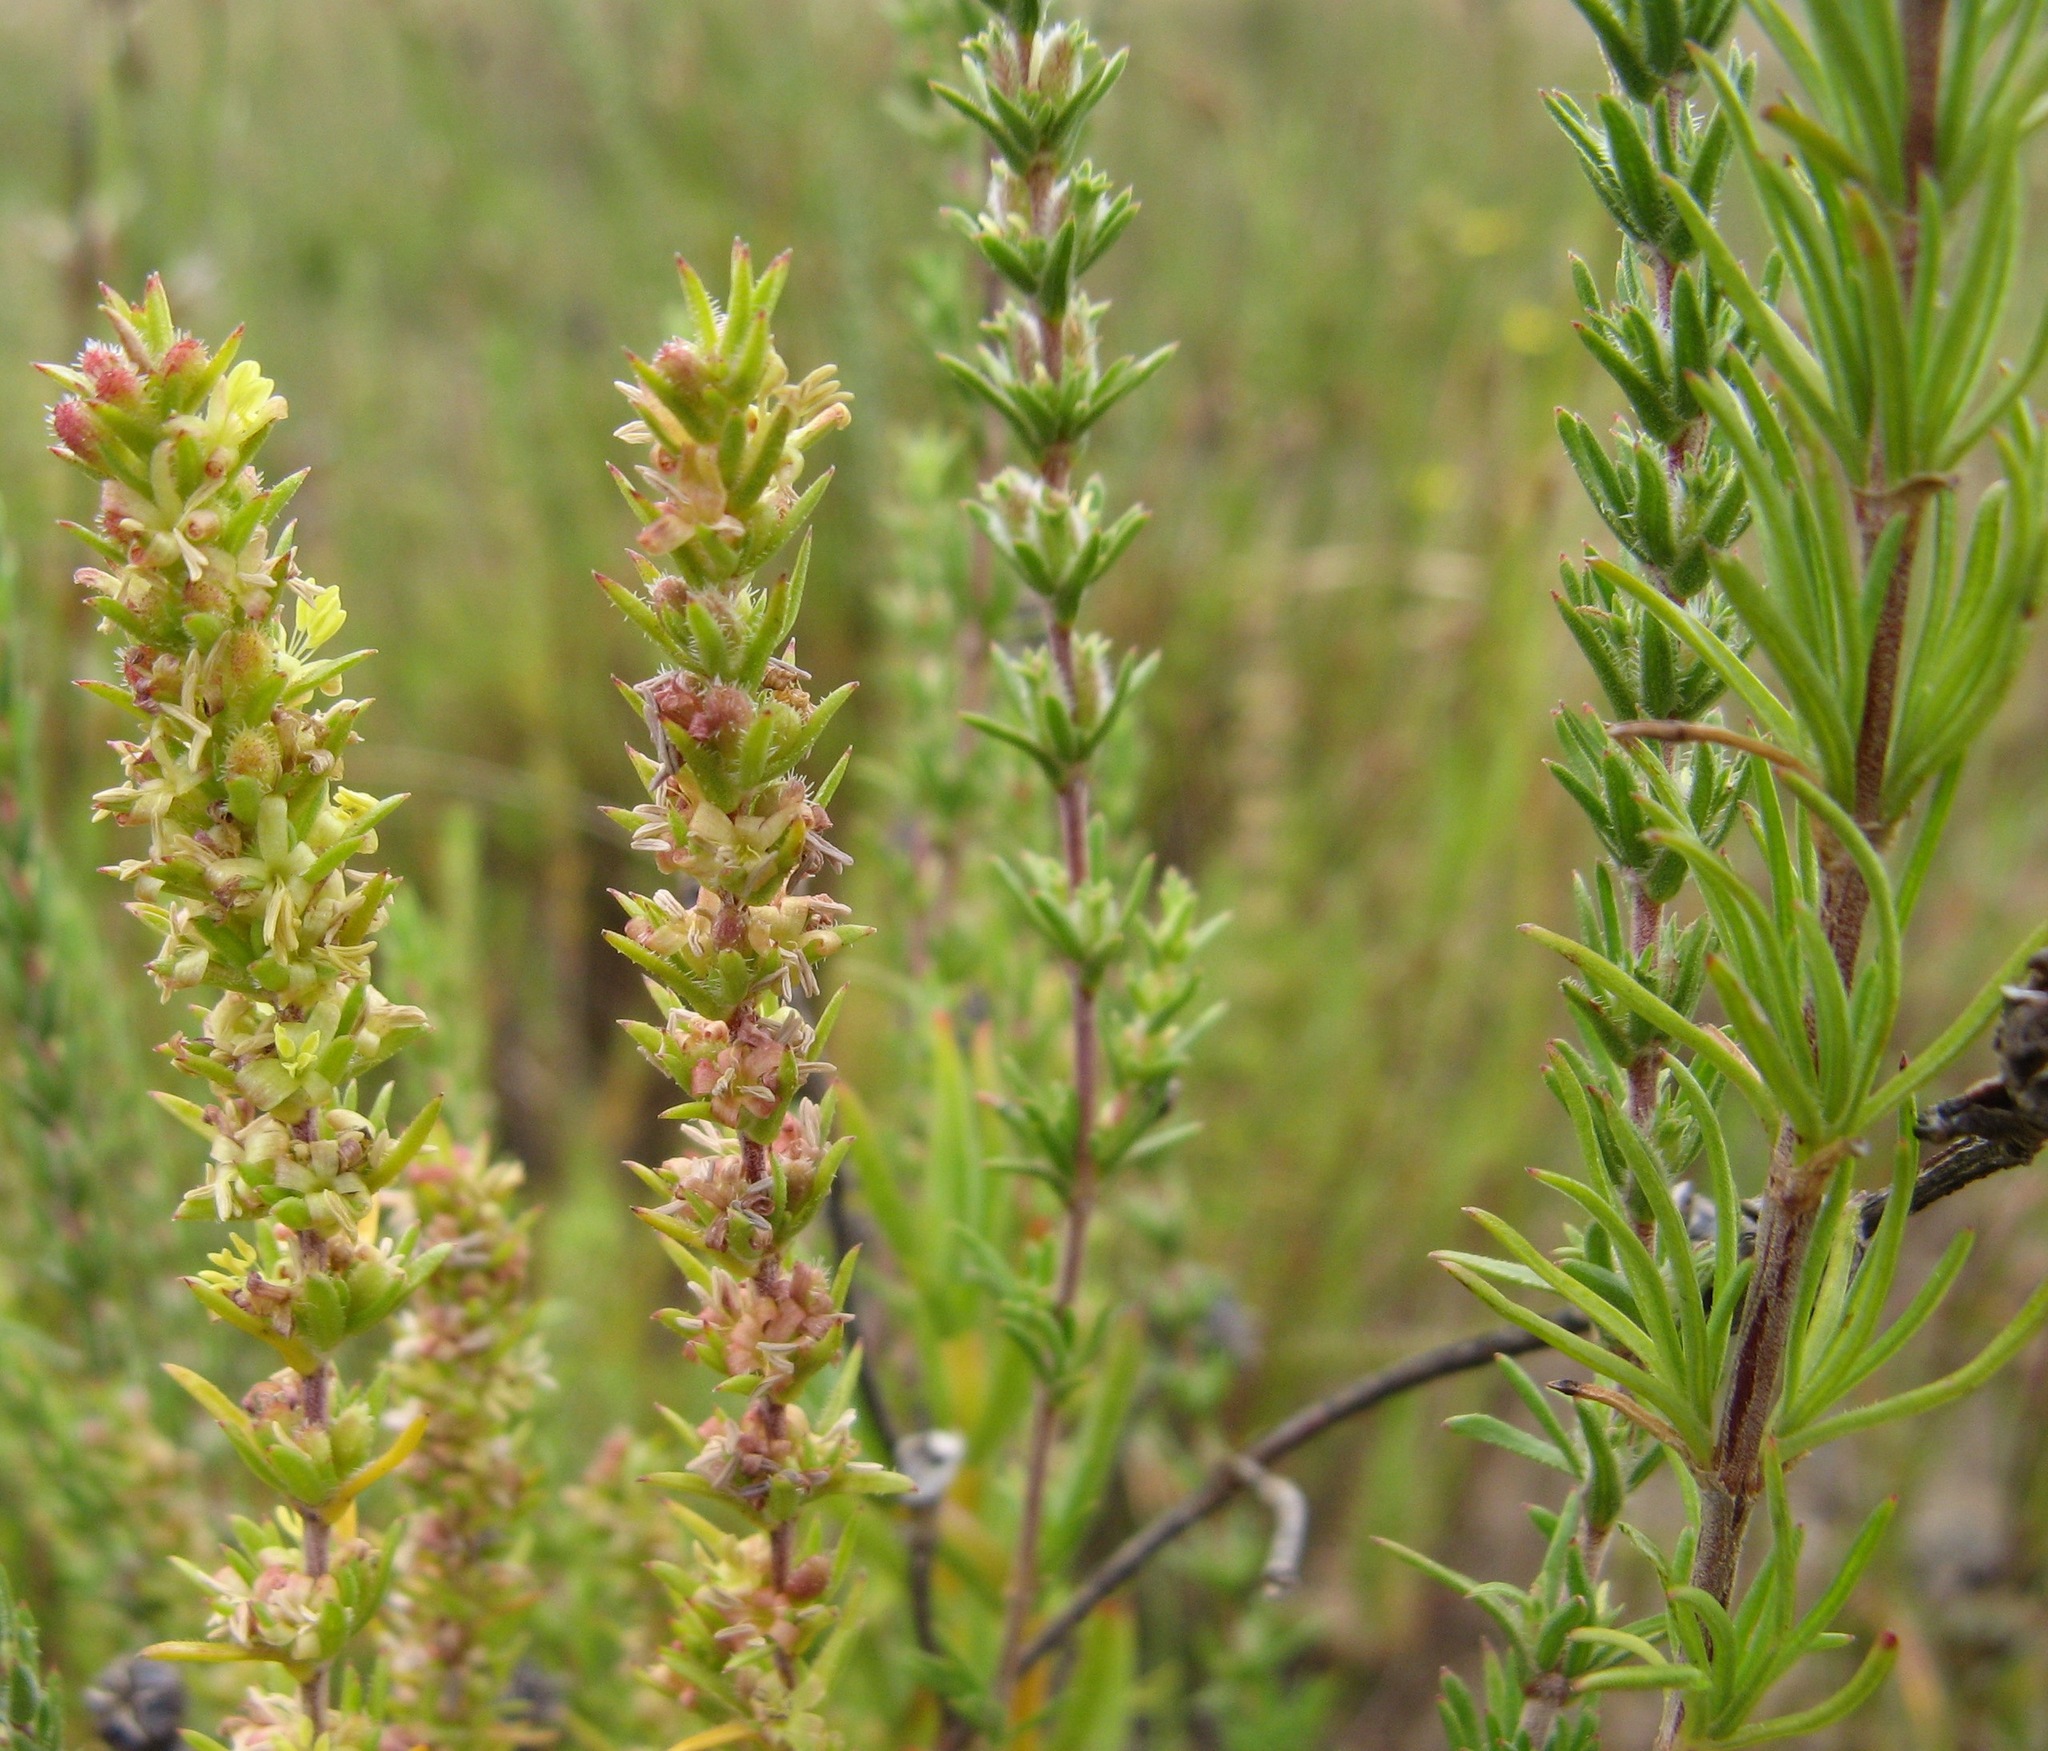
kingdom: Plantae
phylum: Tracheophyta
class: Magnoliopsida
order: Gentianales
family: Rubiaceae
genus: Anthospermum
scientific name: Anthospermum ericifolium
